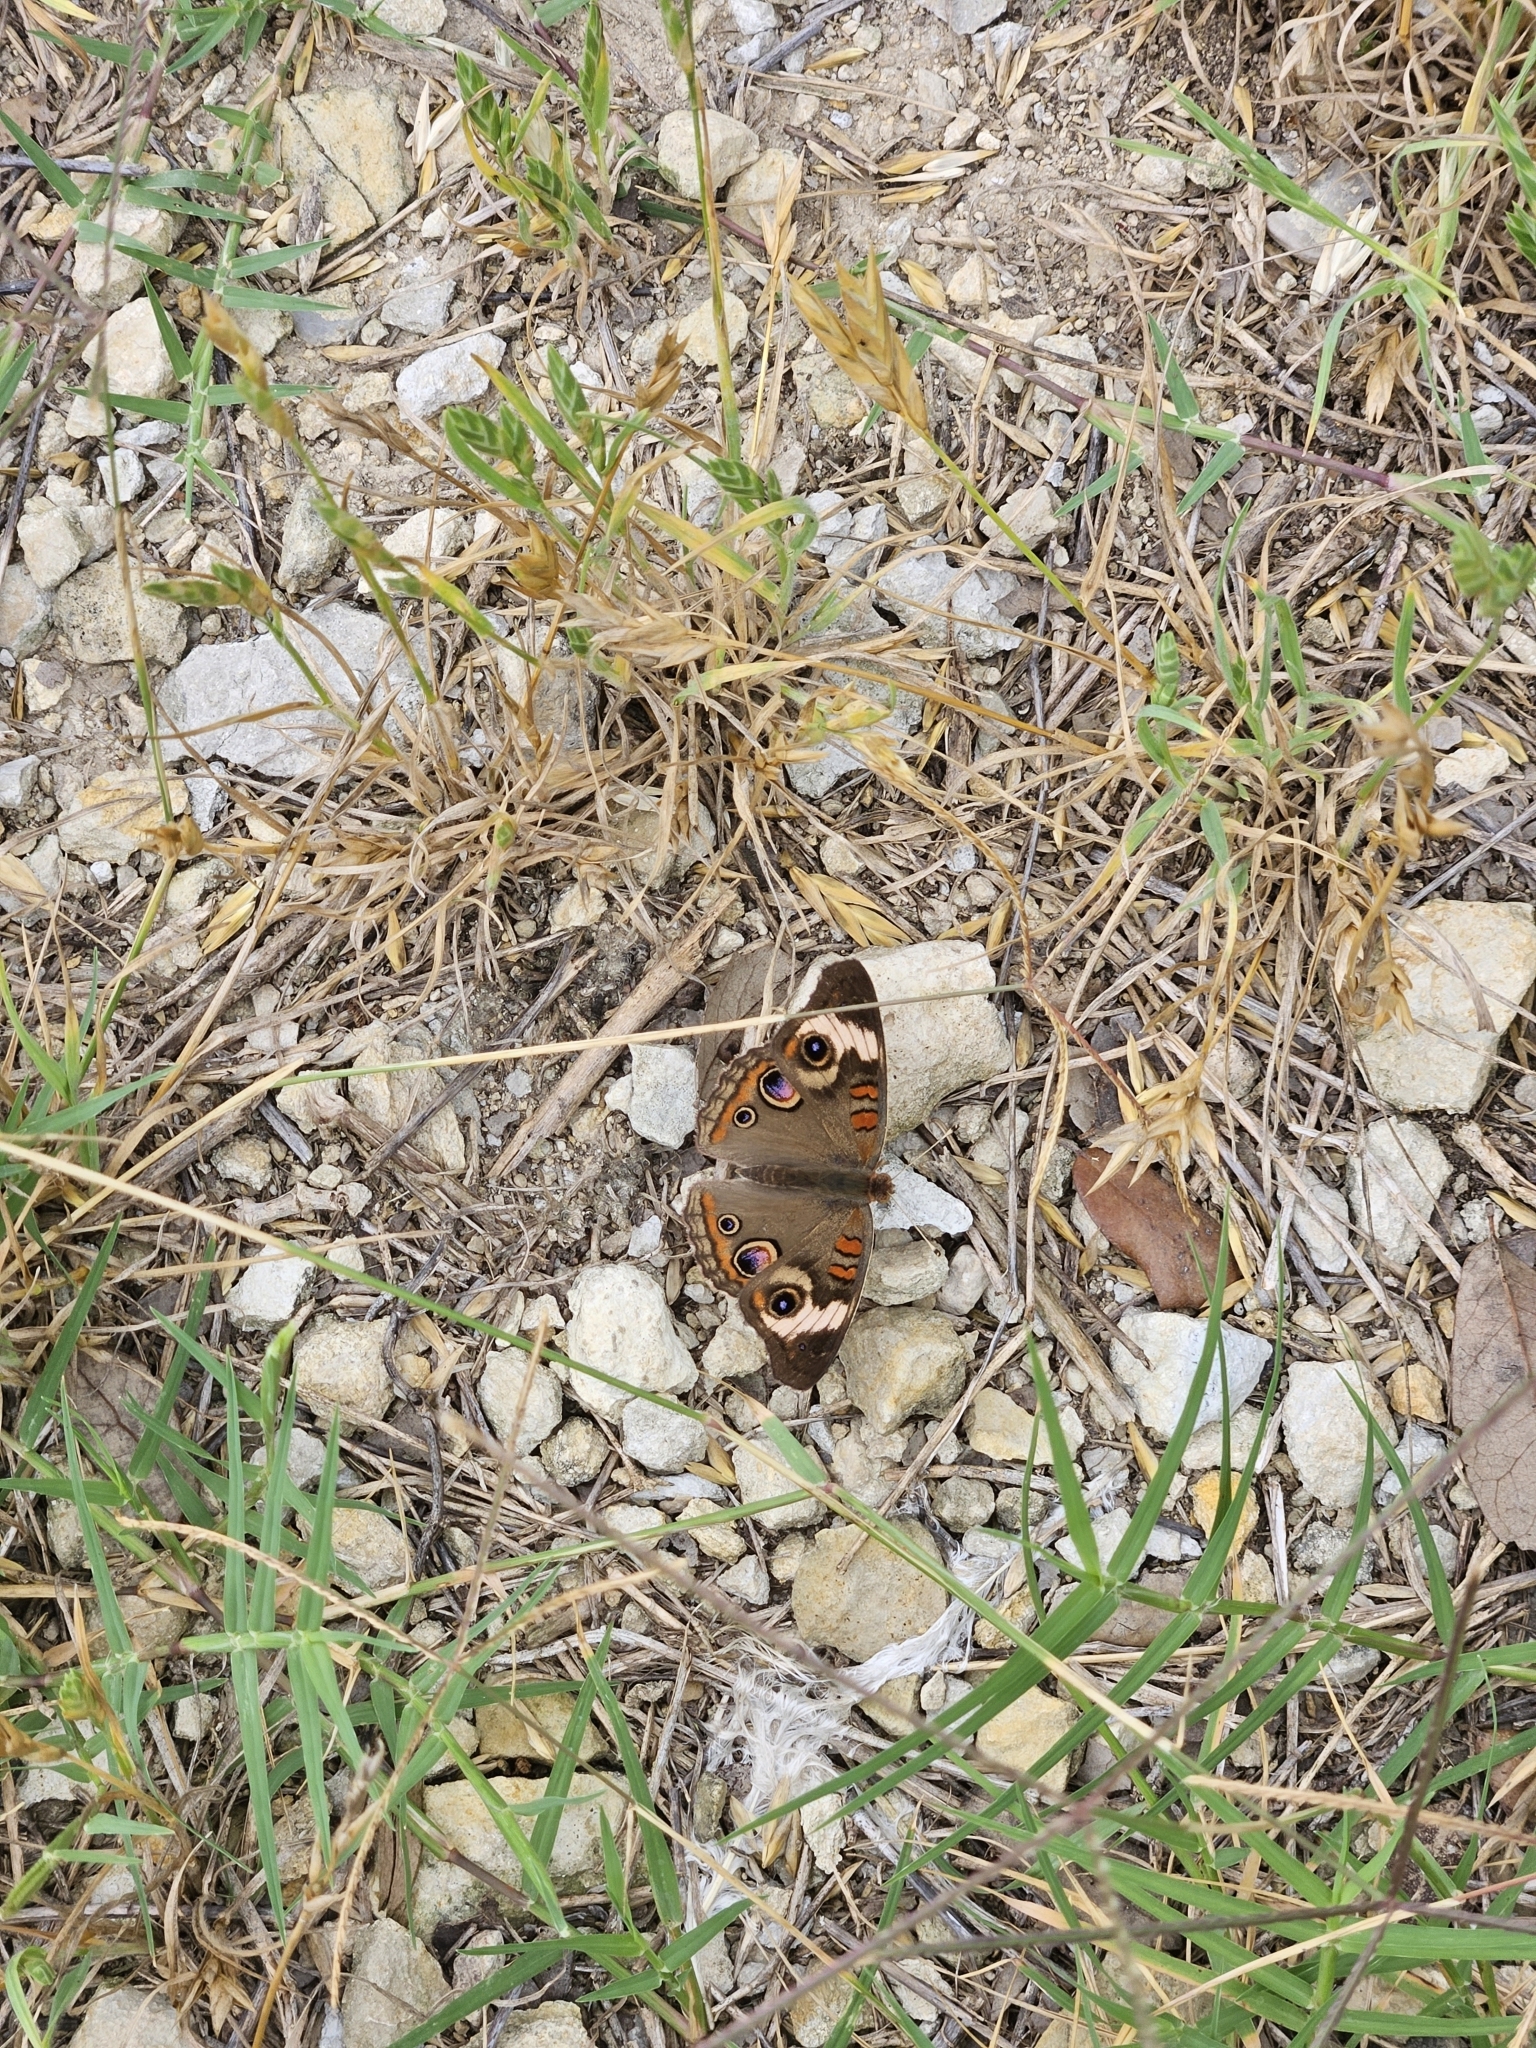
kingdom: Animalia
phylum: Arthropoda
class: Insecta
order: Lepidoptera
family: Nymphalidae
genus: Junonia
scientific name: Junonia coenia
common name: Common buckeye
